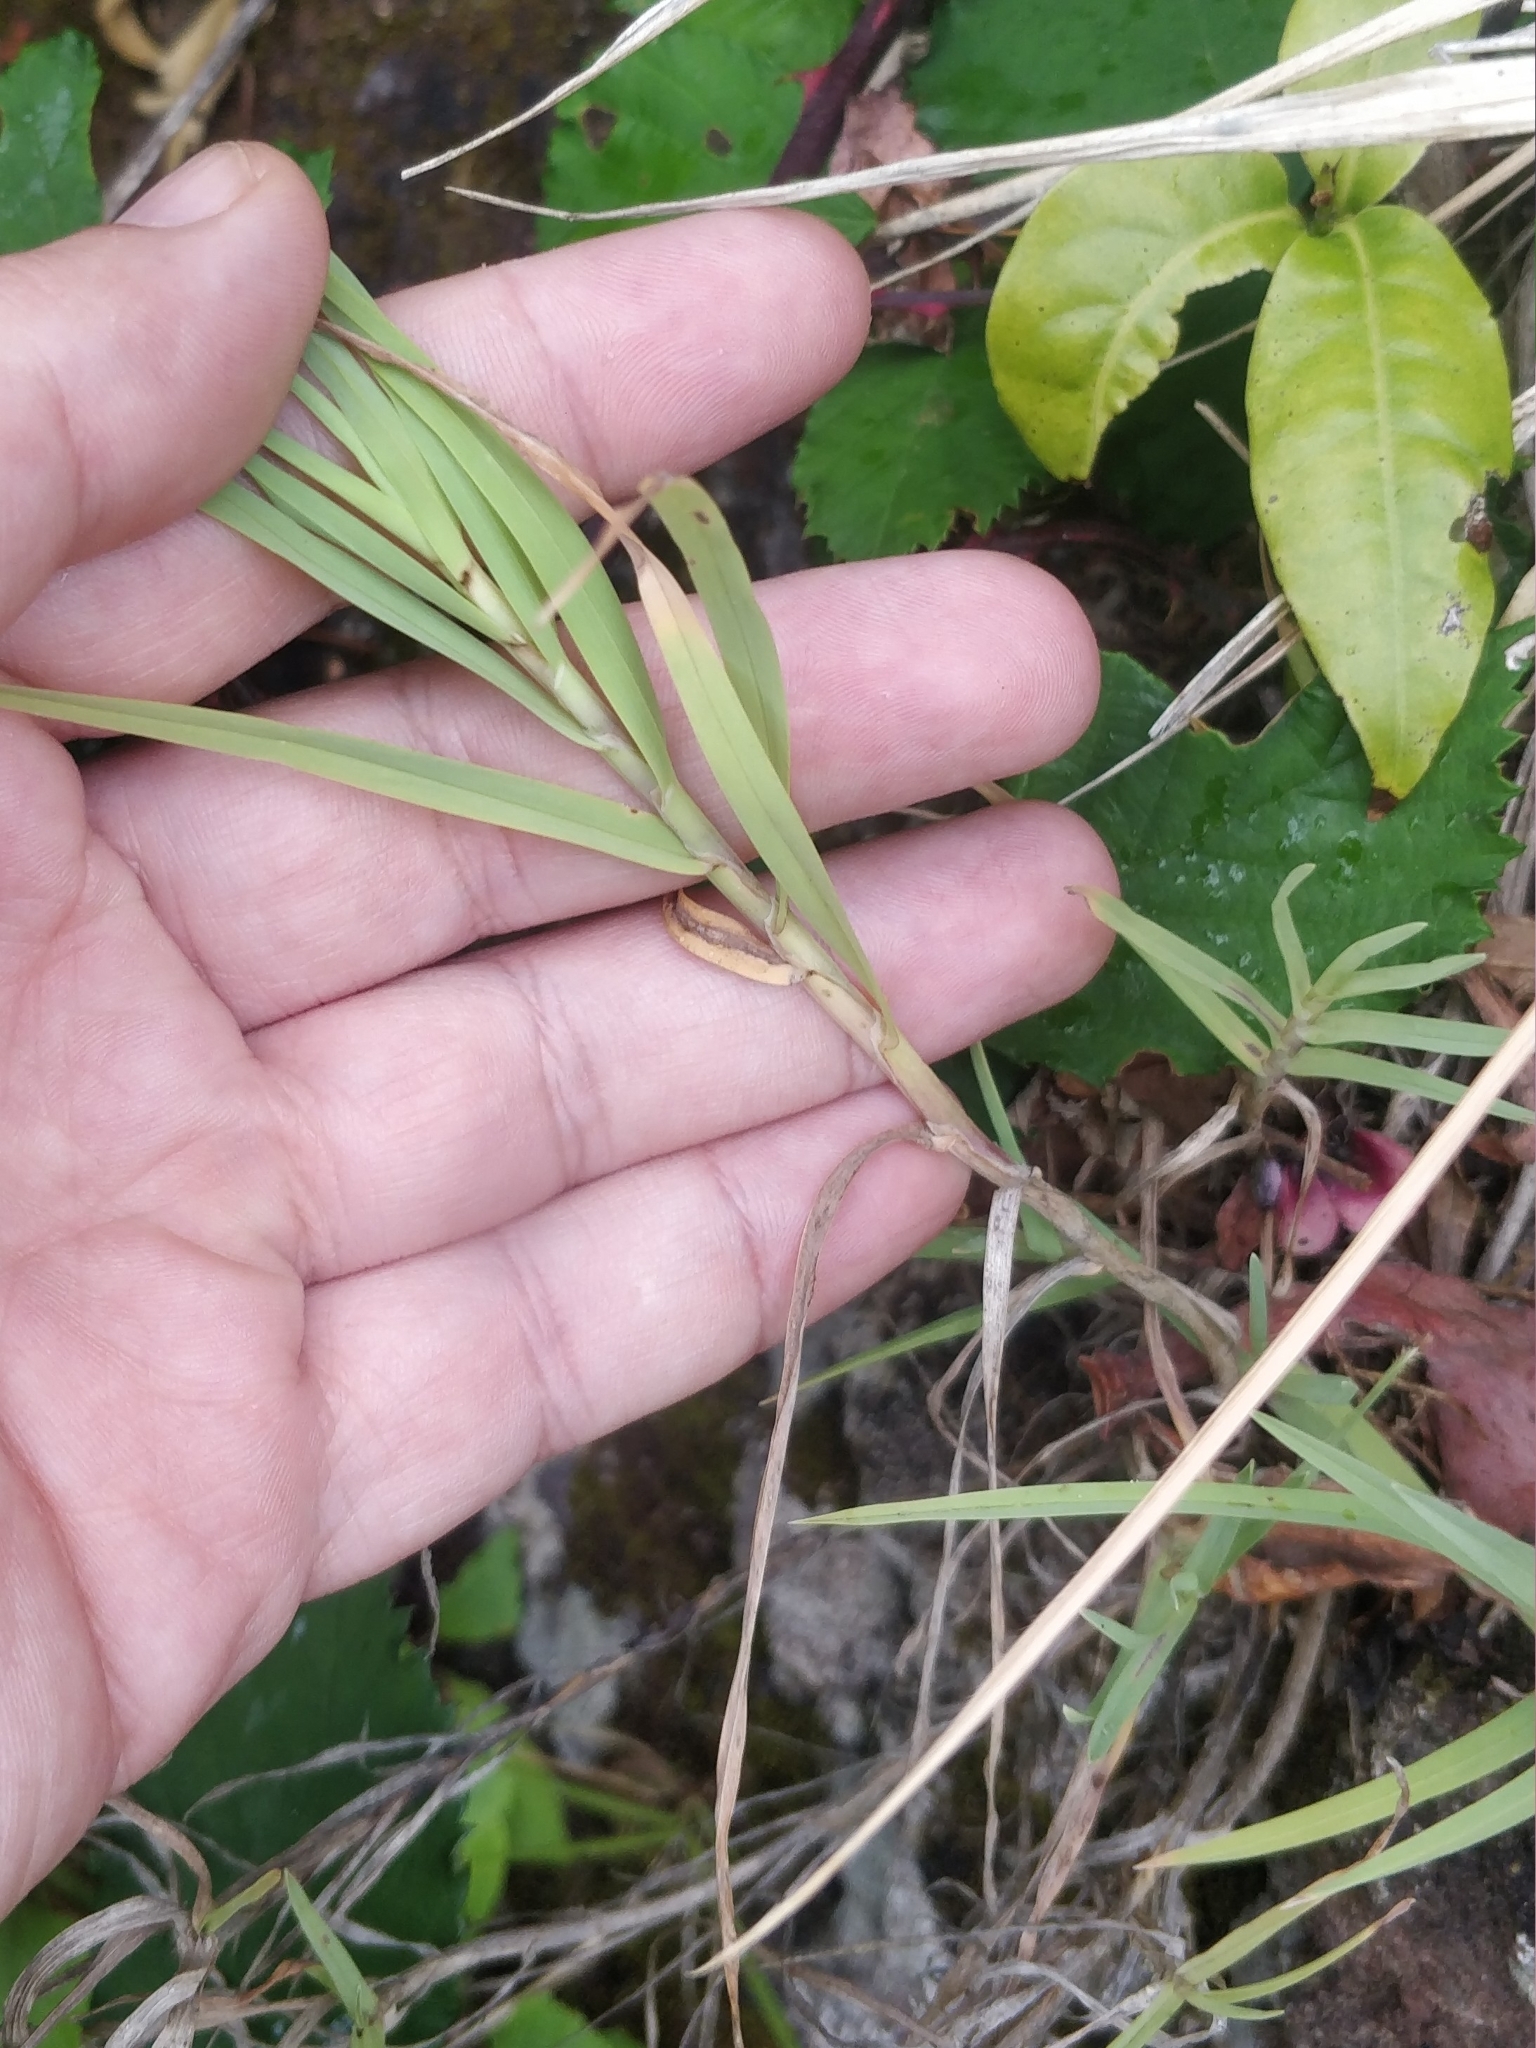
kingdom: Plantae
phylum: Tracheophyta
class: Liliopsida
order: Poales
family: Poaceae
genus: Dactylis
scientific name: Dactylis smithii
